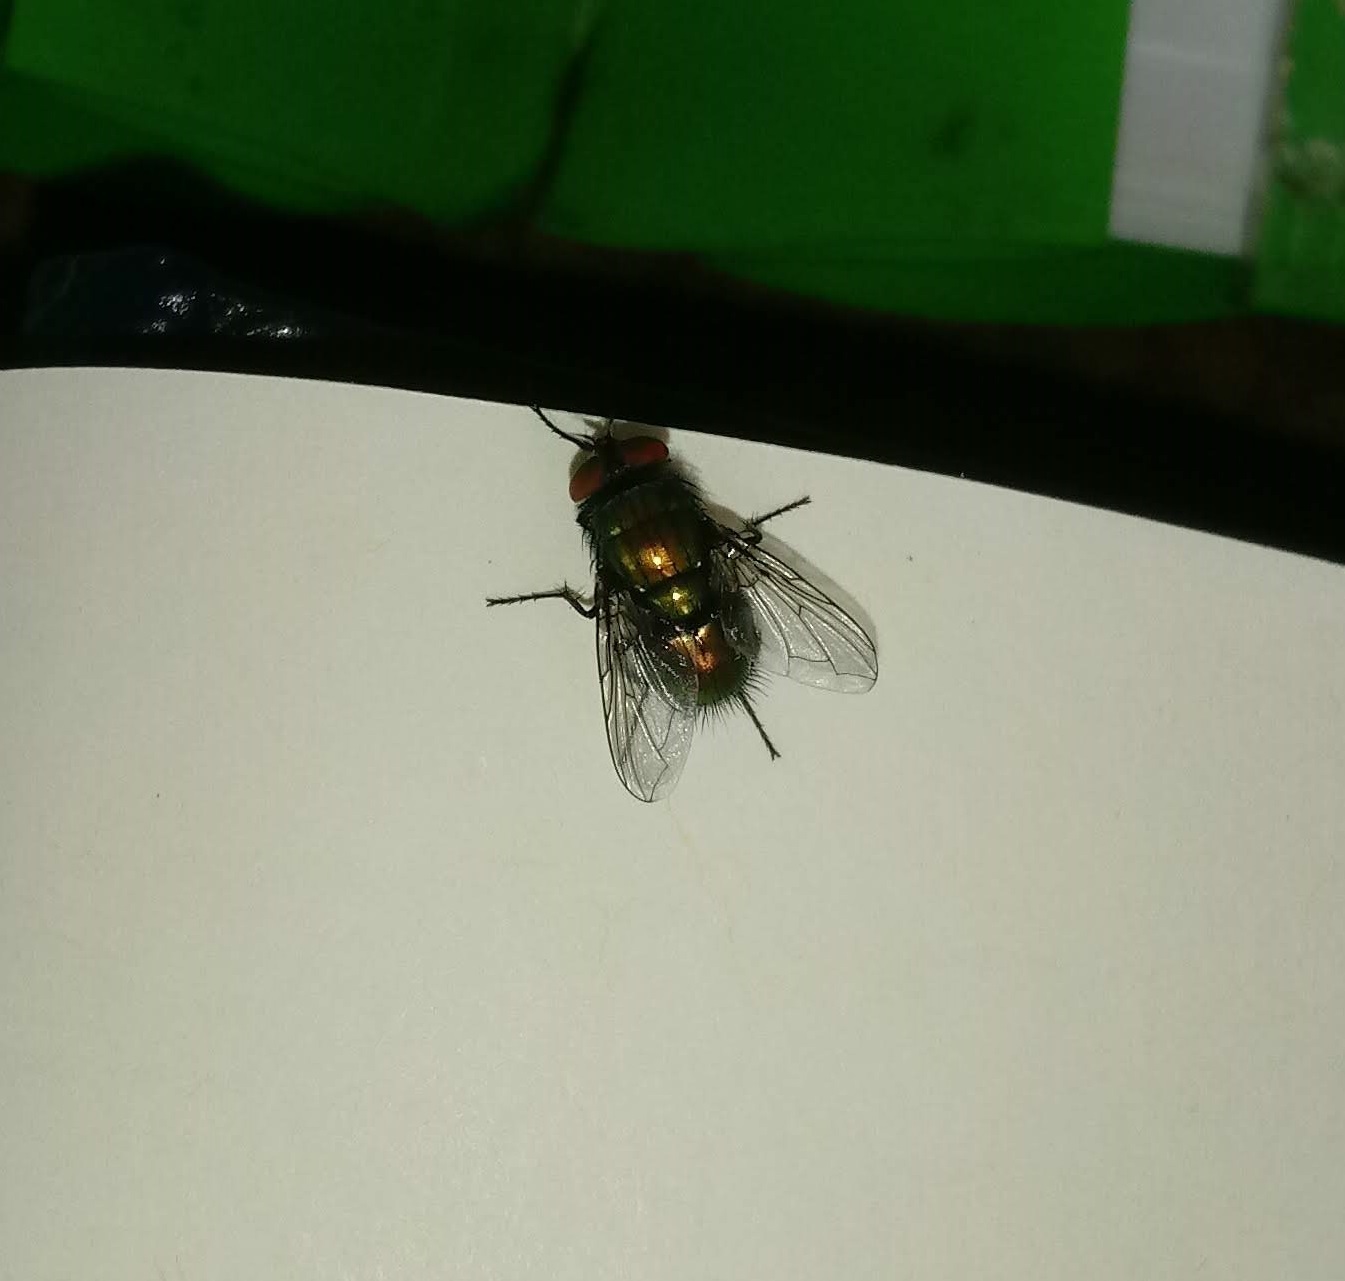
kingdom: Animalia
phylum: Arthropoda
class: Insecta
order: Diptera
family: Calliphoridae
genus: Lucilia
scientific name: Lucilia sericata
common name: Blow fly
